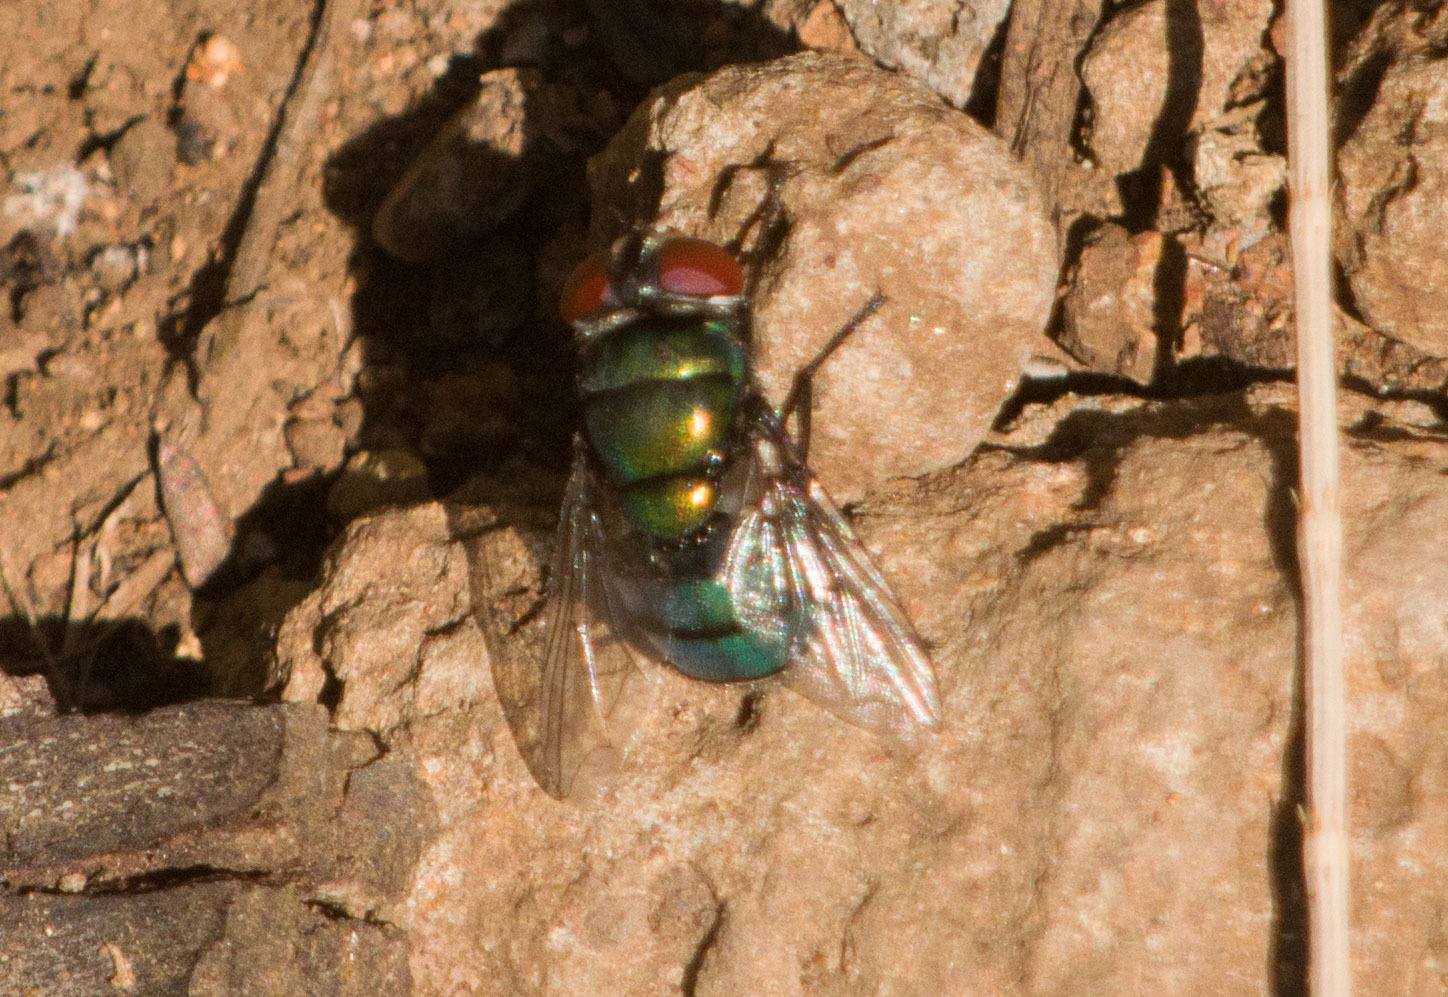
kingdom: Animalia
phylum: Arthropoda
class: Insecta
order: Diptera
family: Calliphoridae
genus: Chrysomya
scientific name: Chrysomya rufifacies
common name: Blow fly
